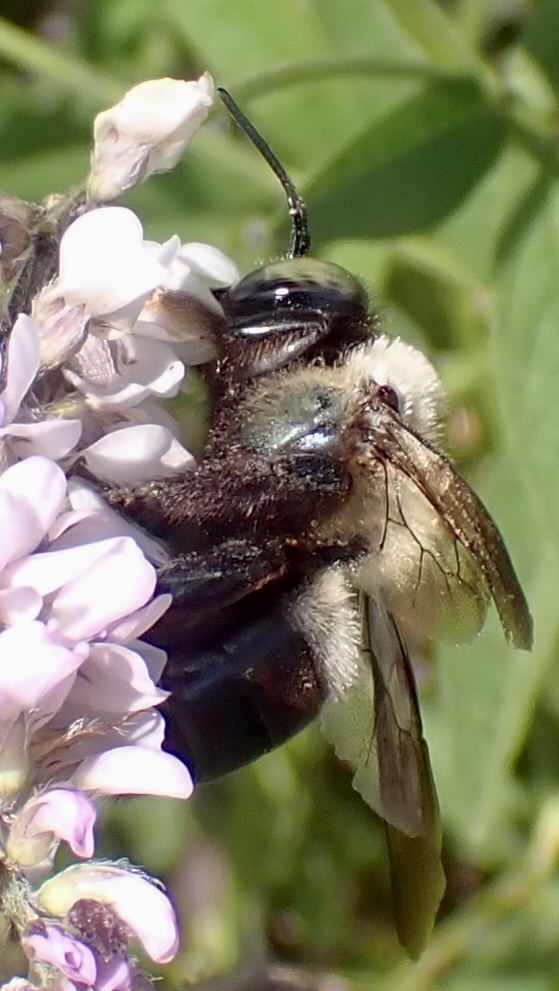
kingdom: Animalia
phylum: Arthropoda
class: Insecta
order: Hymenoptera
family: Apidae
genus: Xylocopa
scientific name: Xylocopa virginica
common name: Carpenter bee
